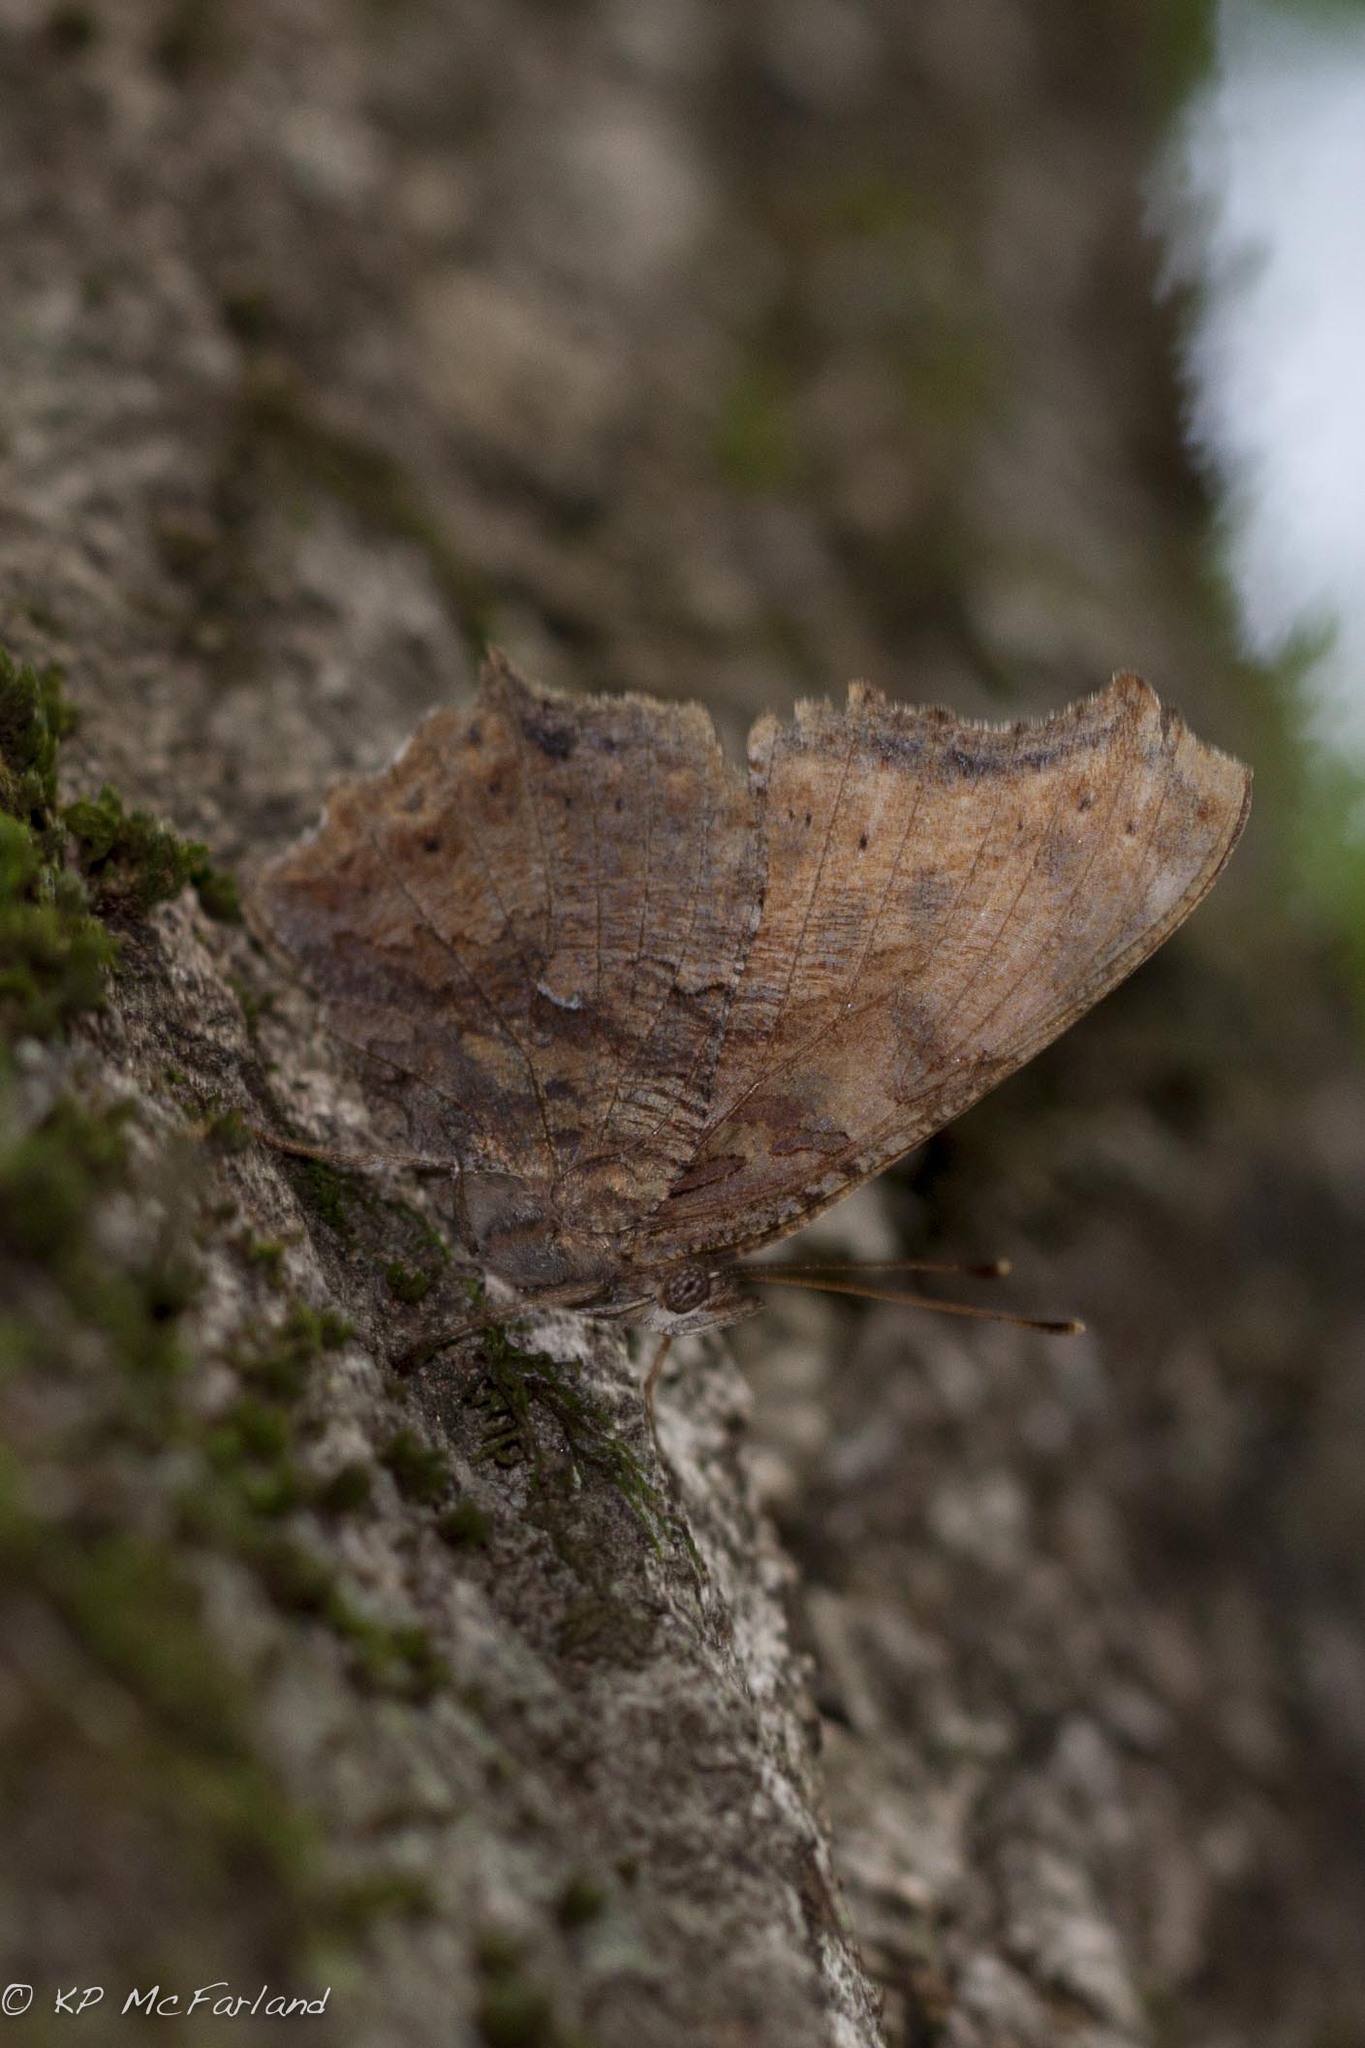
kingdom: Animalia
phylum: Arthropoda
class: Insecta
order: Lepidoptera
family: Nymphalidae
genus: Polygonia
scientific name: Polygonia comma
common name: Eastern comma
